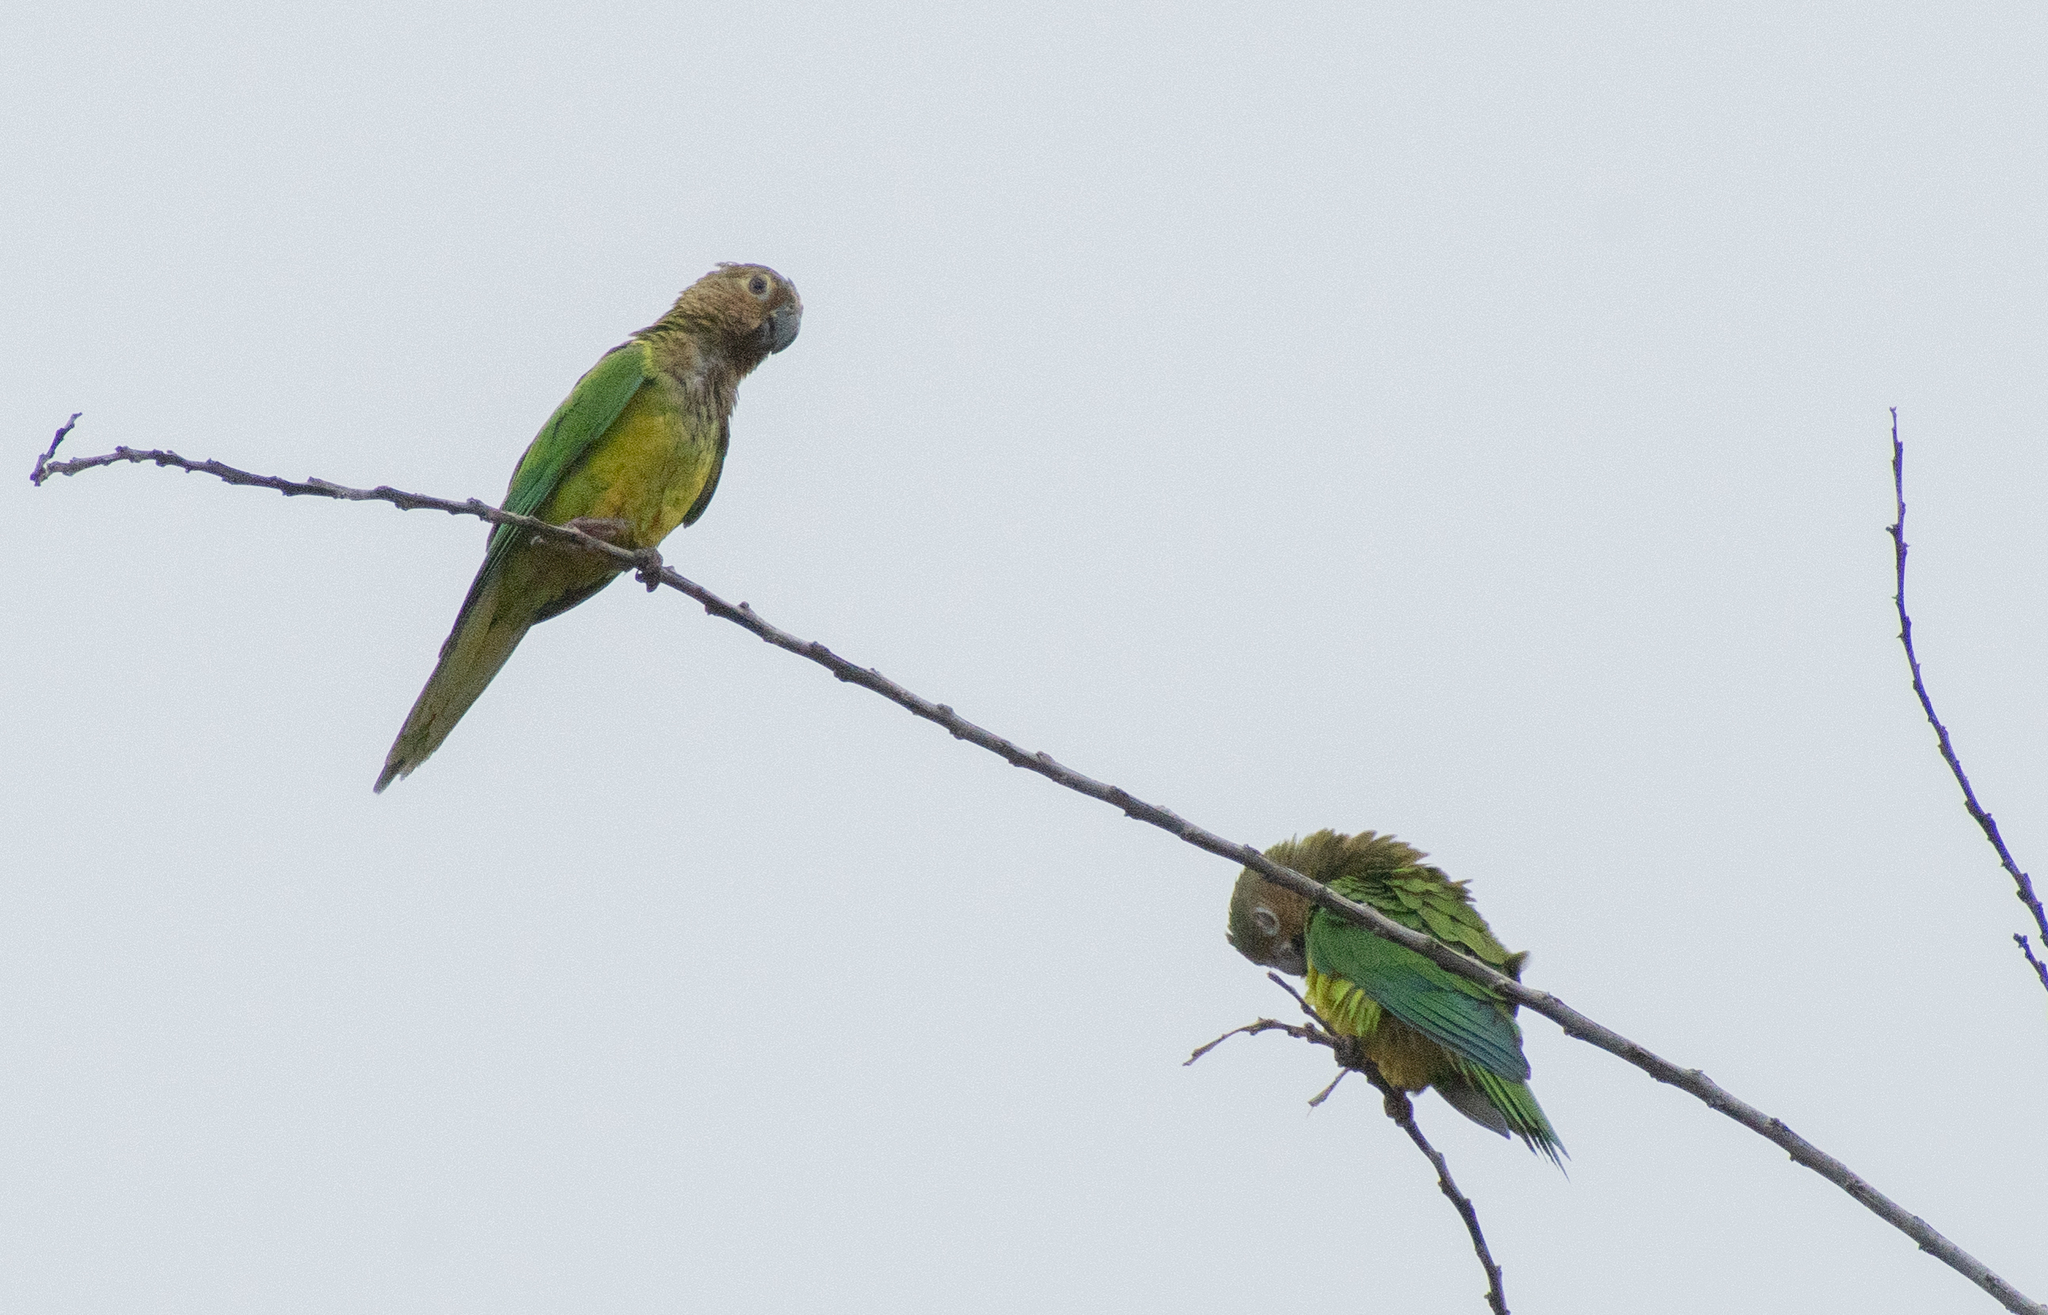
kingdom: Animalia
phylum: Chordata
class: Aves
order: Psittaciformes
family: Psittacidae
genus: Aratinga
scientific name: Aratinga pertinax
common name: Brown-throated parakeet
